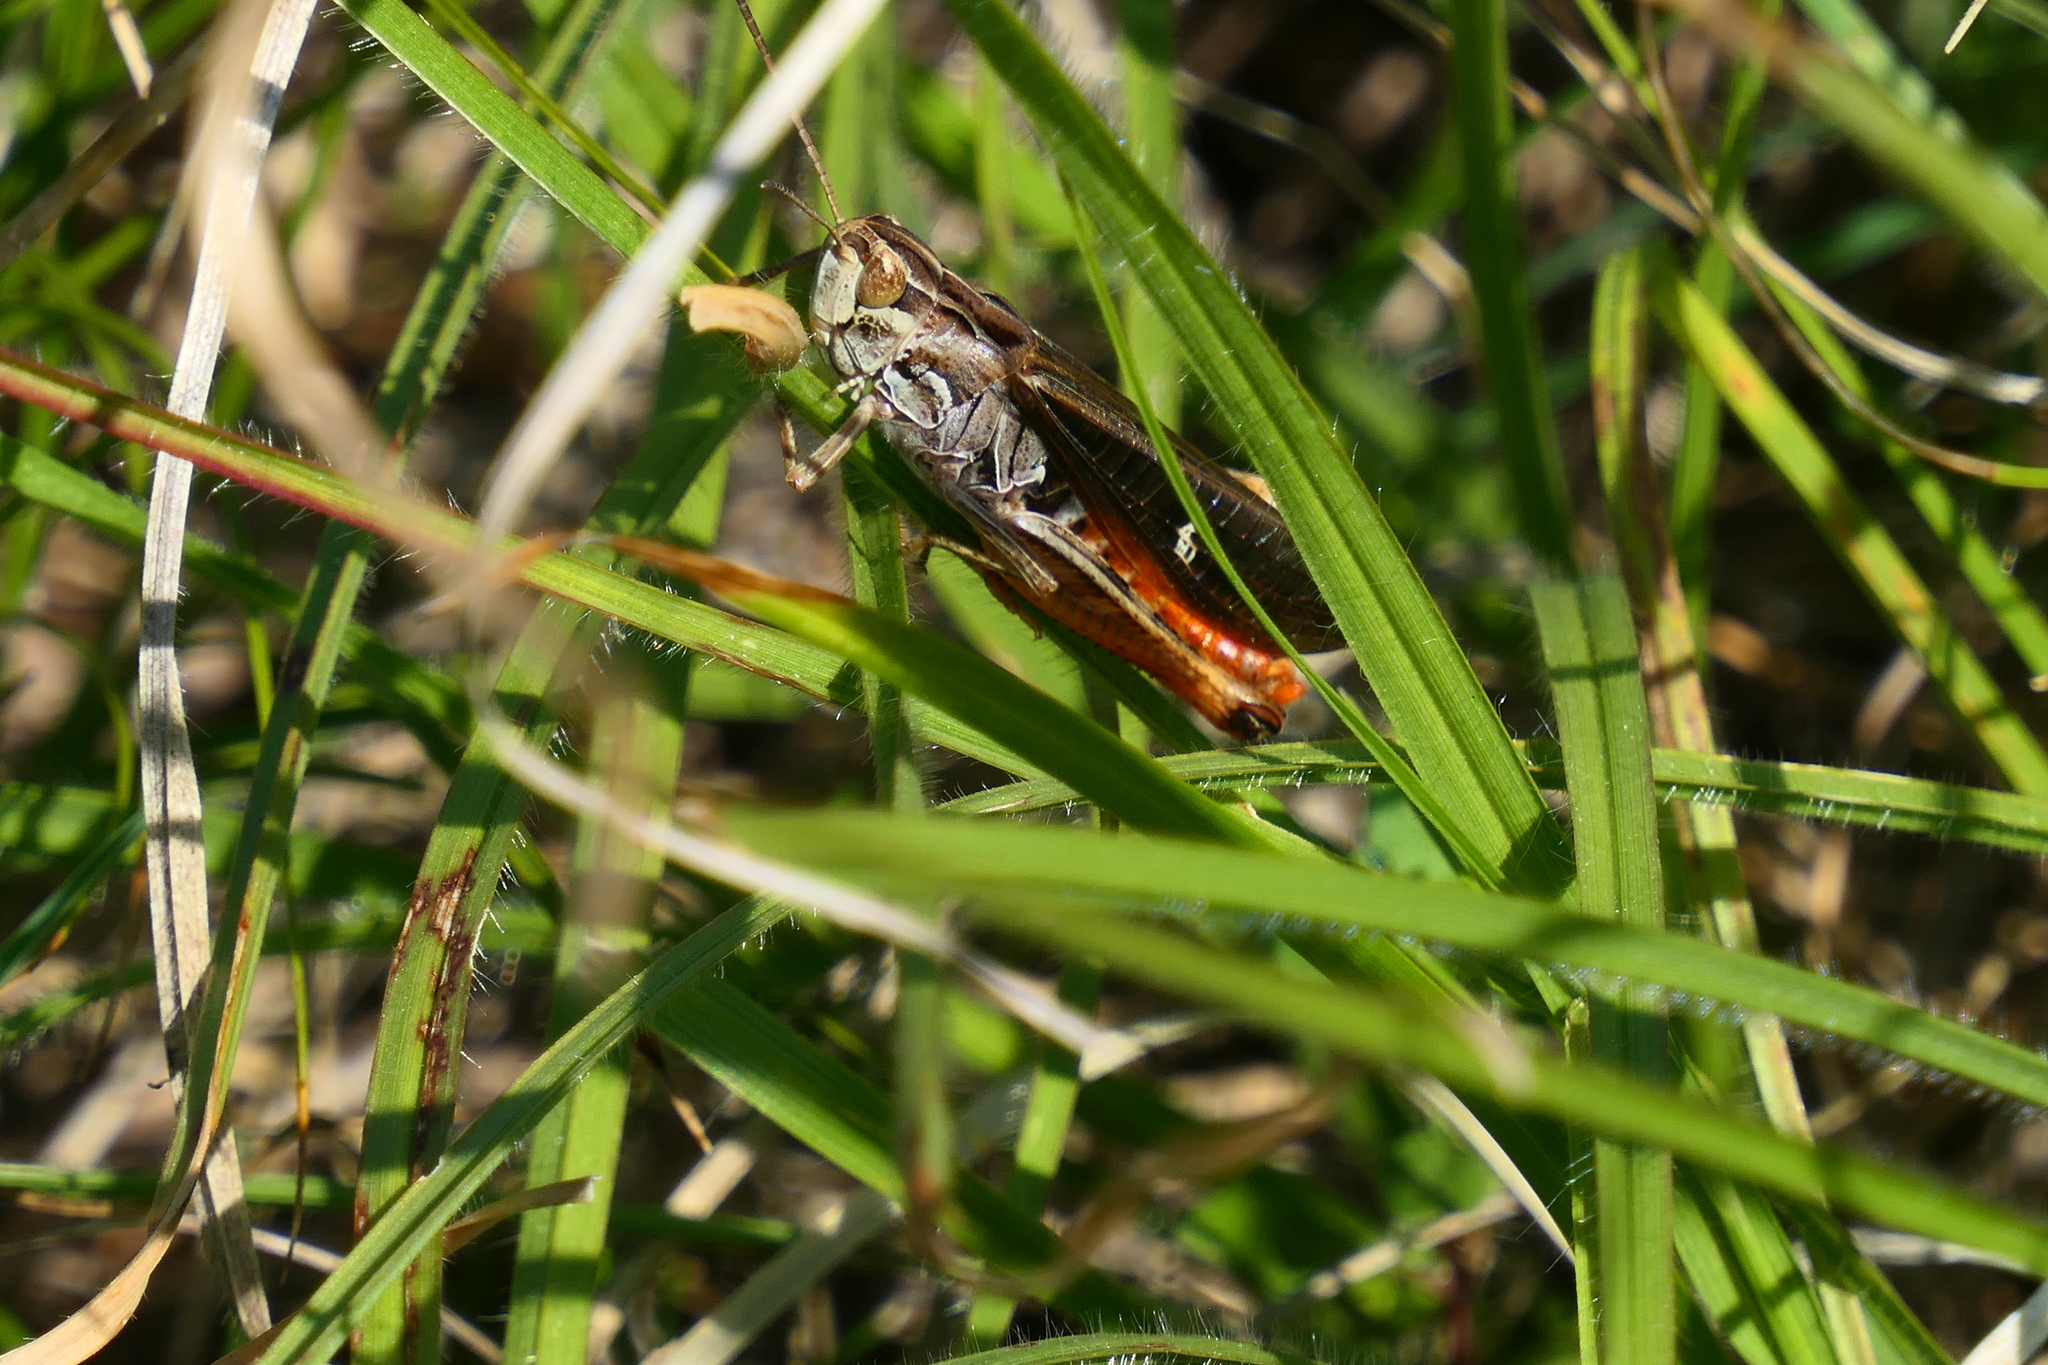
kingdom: Animalia
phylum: Arthropoda
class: Insecta
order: Orthoptera
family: Acrididae
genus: Stenobothrus
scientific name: Stenobothrus rubicundulus
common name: Wing-buzzing grasshopper
